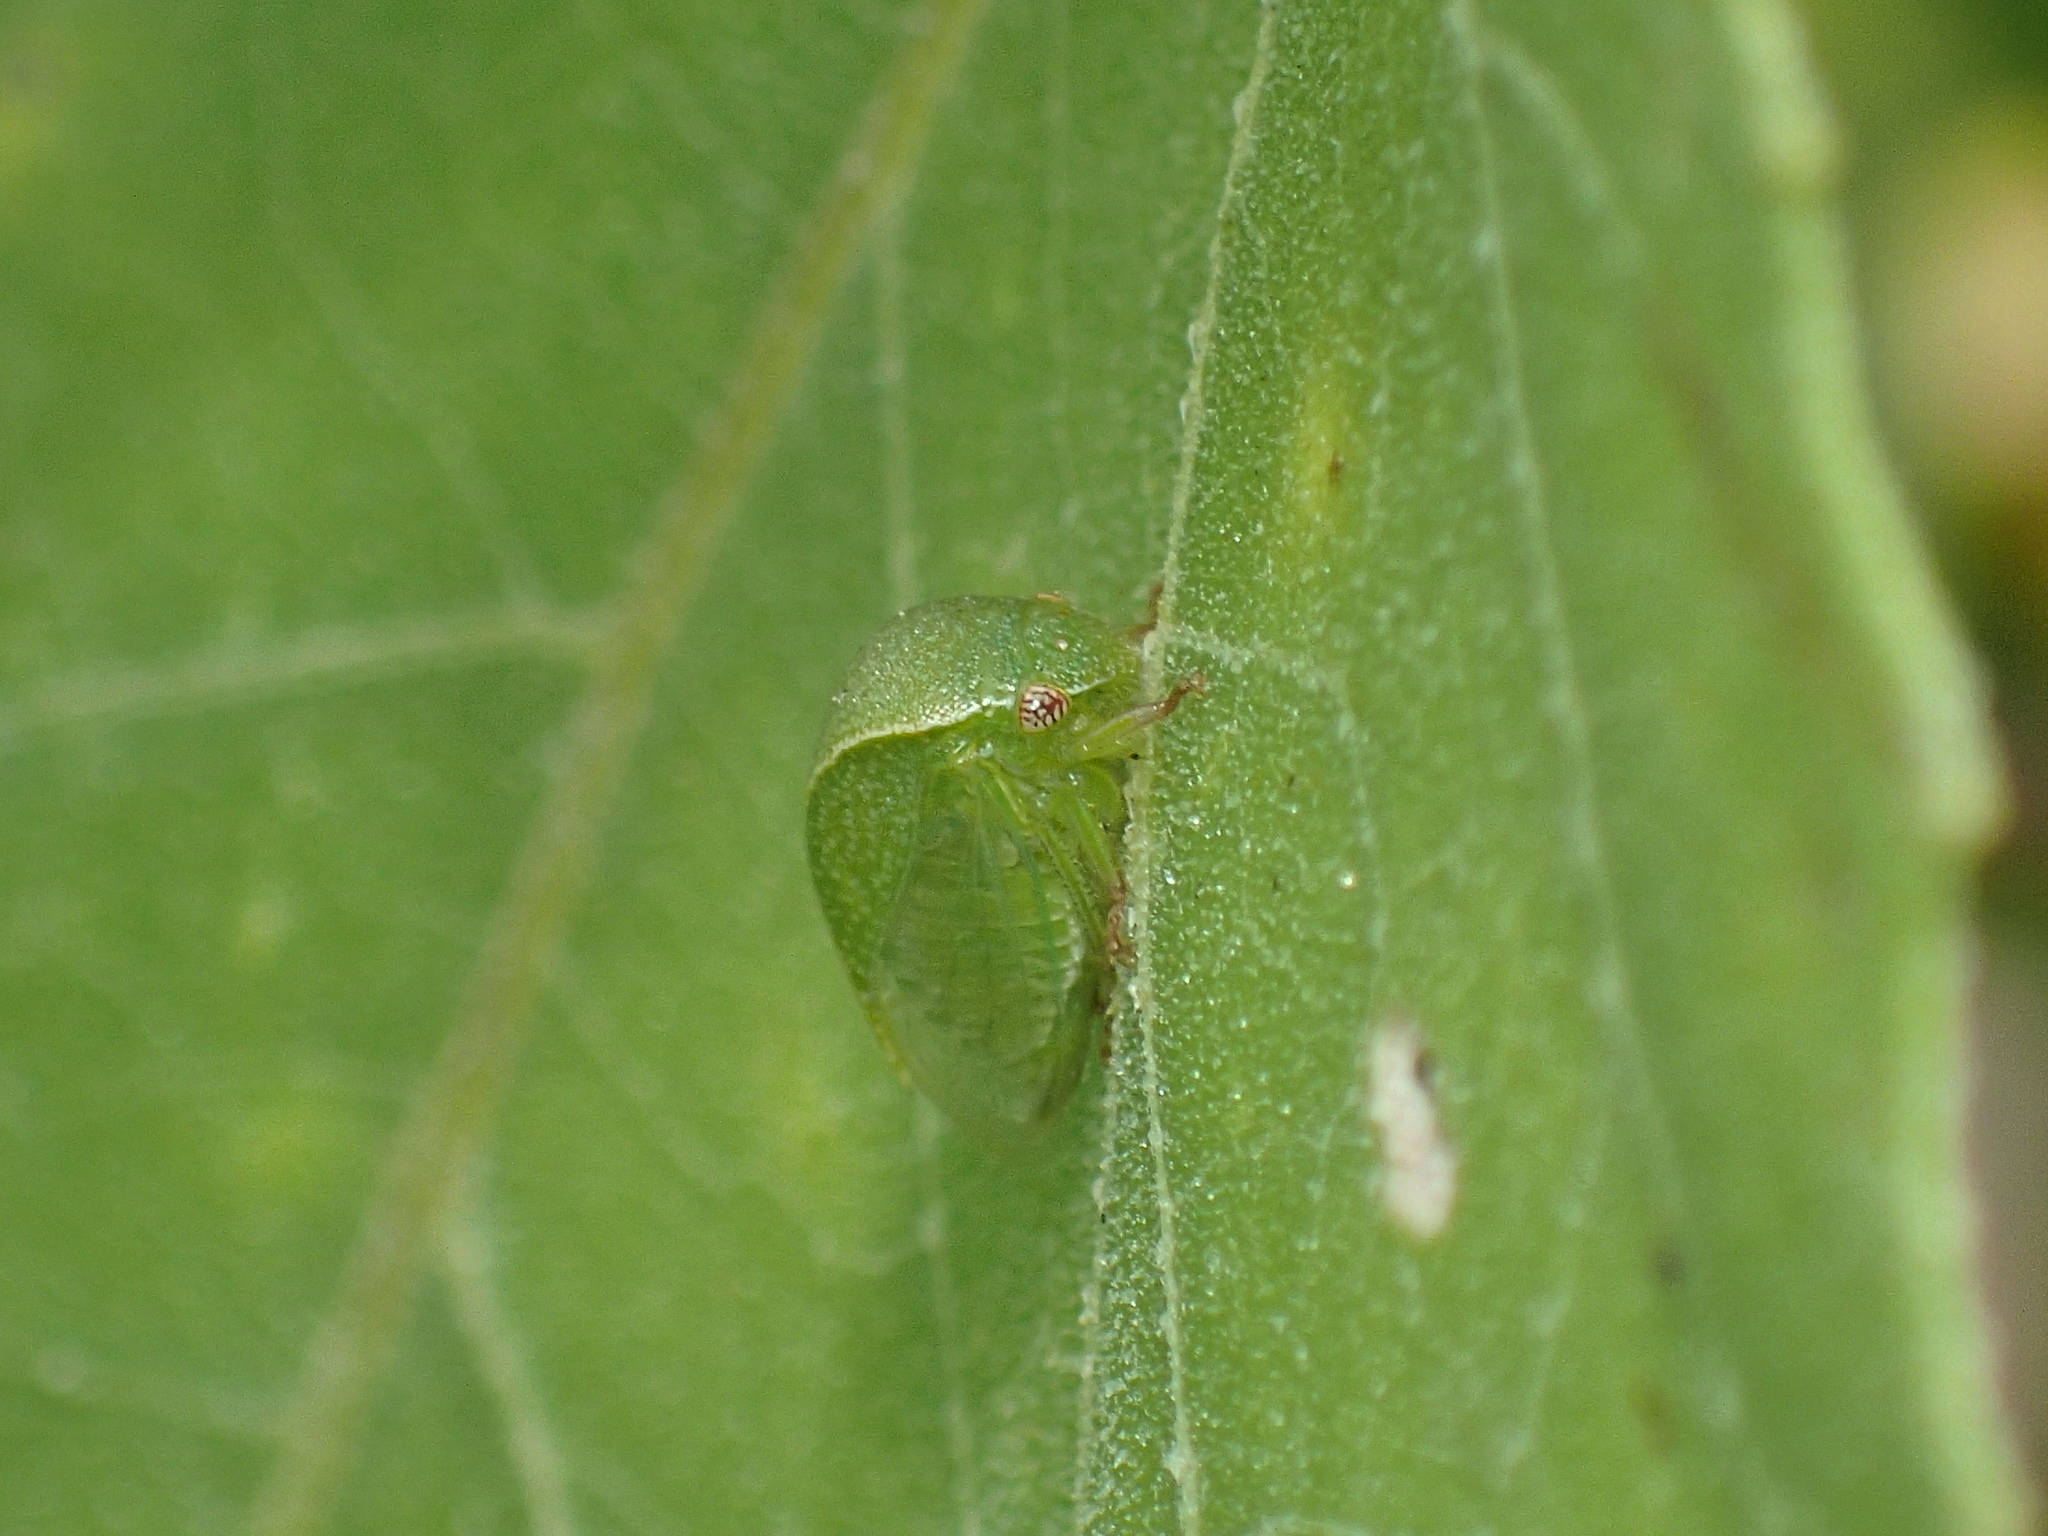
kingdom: Animalia
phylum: Arthropoda
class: Insecta
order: Hemiptera
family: Membracidae
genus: Spissistilus
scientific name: Spissistilus festina
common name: Membracid bug
